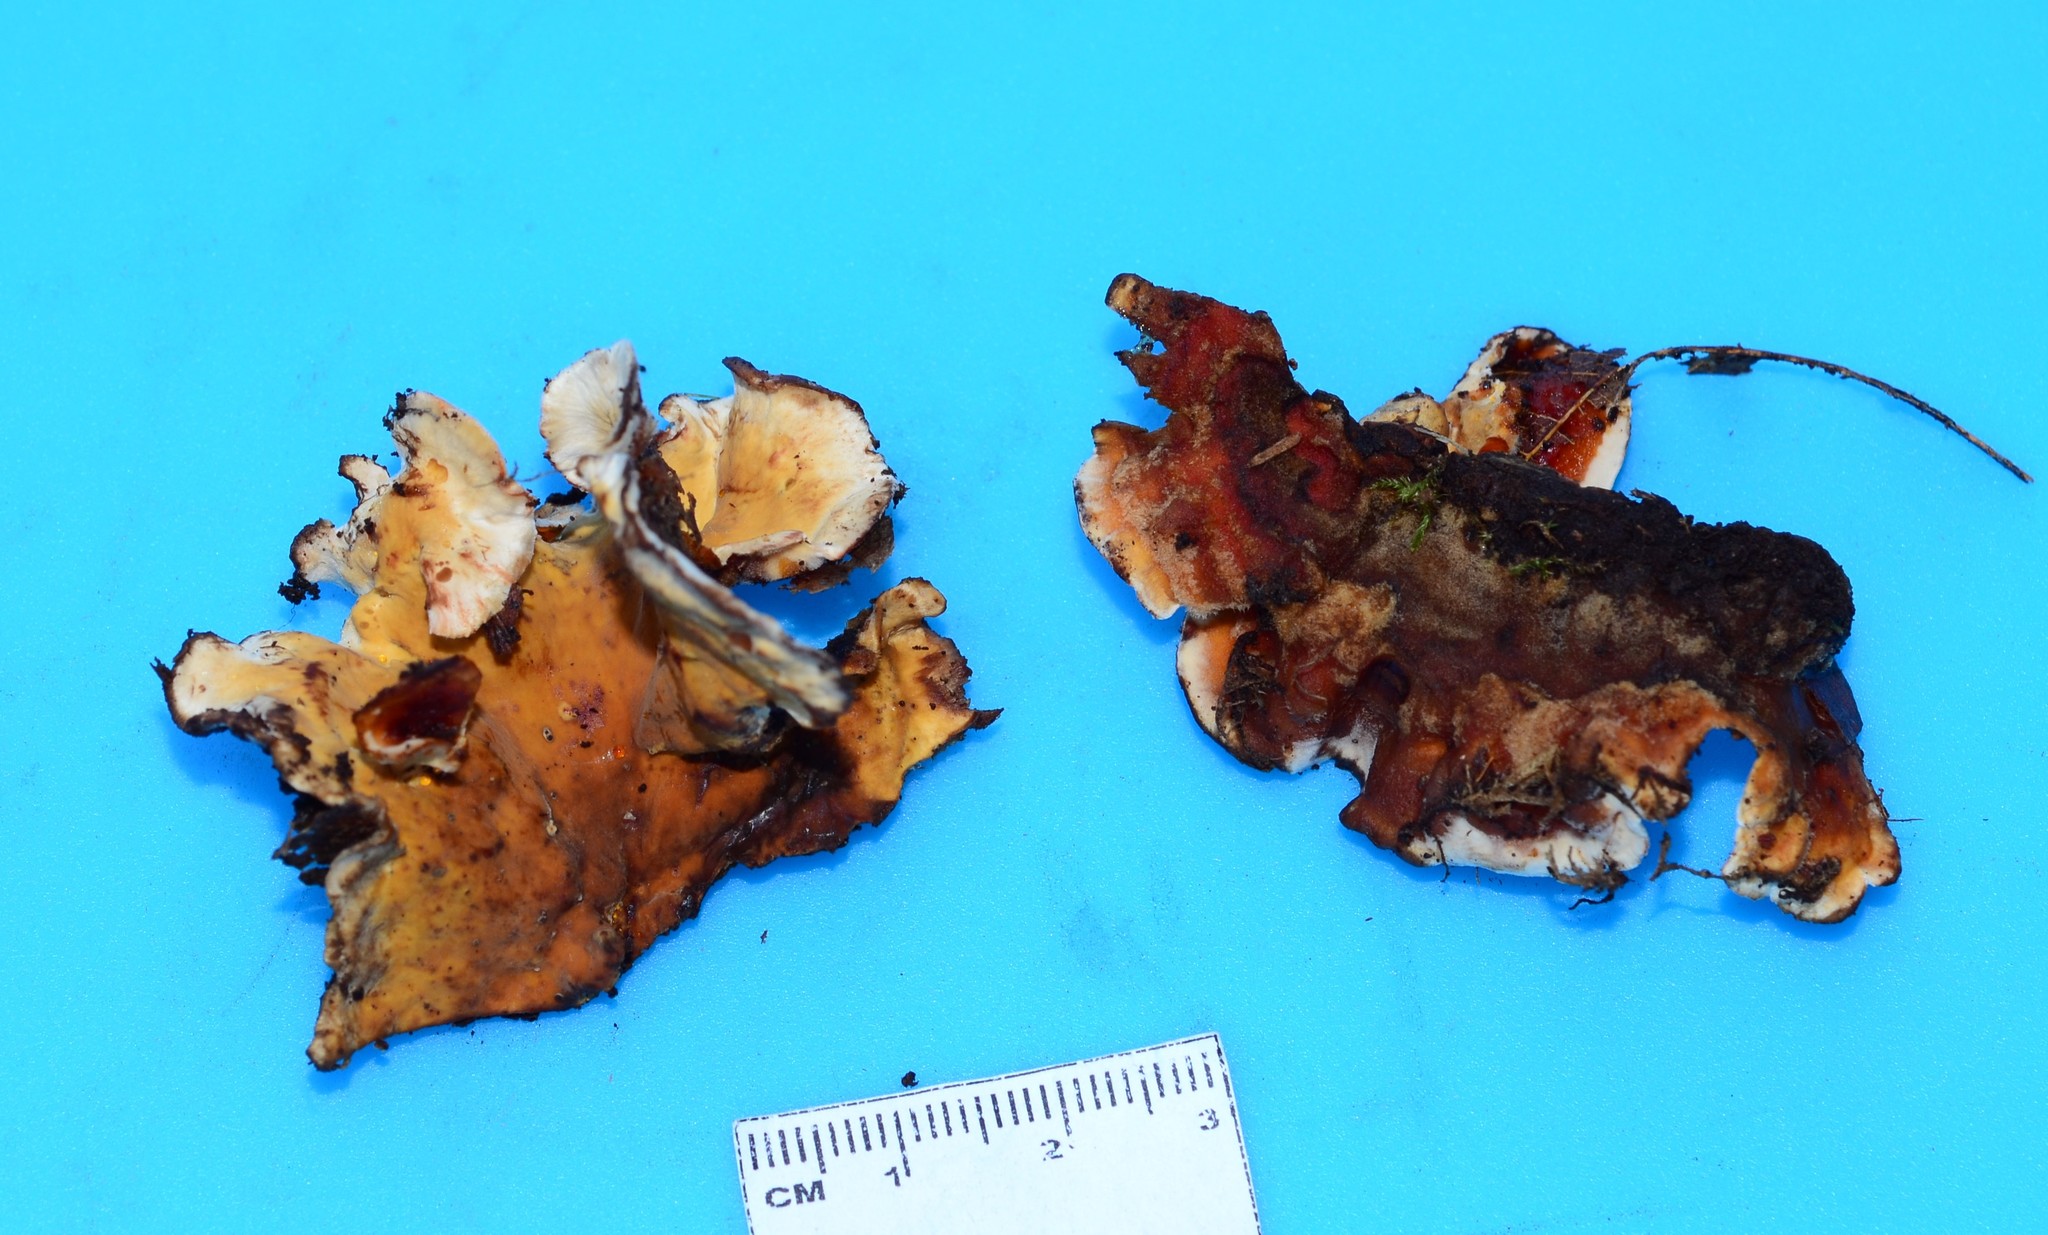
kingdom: Fungi
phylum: Basidiomycota
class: Agaricomycetes
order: Russulales
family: Stereaceae
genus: Stereum
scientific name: Stereum gausapatum
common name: Bleeding oak crust
